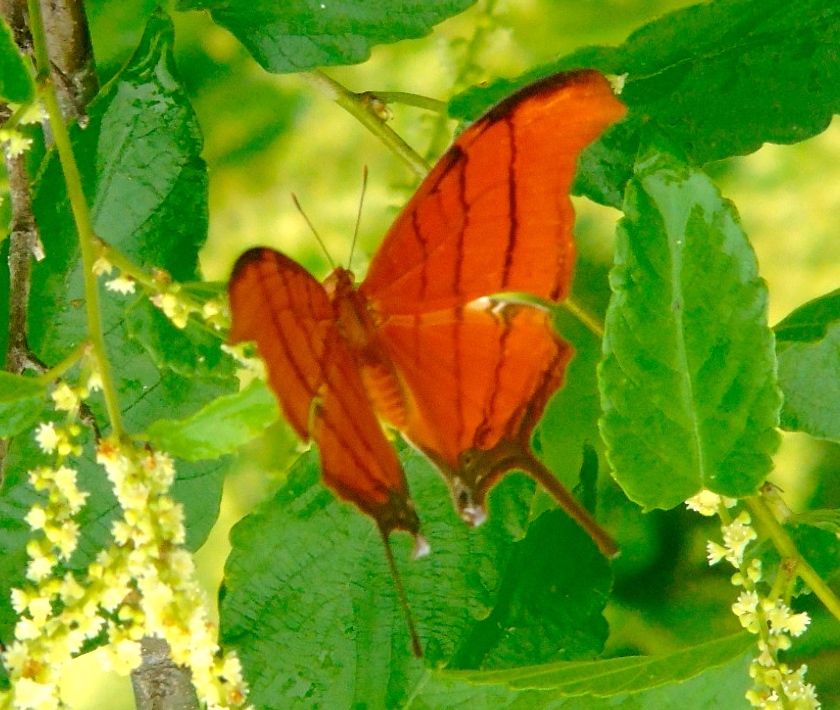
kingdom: Animalia
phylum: Arthropoda
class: Insecta
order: Lepidoptera
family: Nymphalidae
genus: Marpesia
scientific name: Marpesia petreus
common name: Red dagger wing
